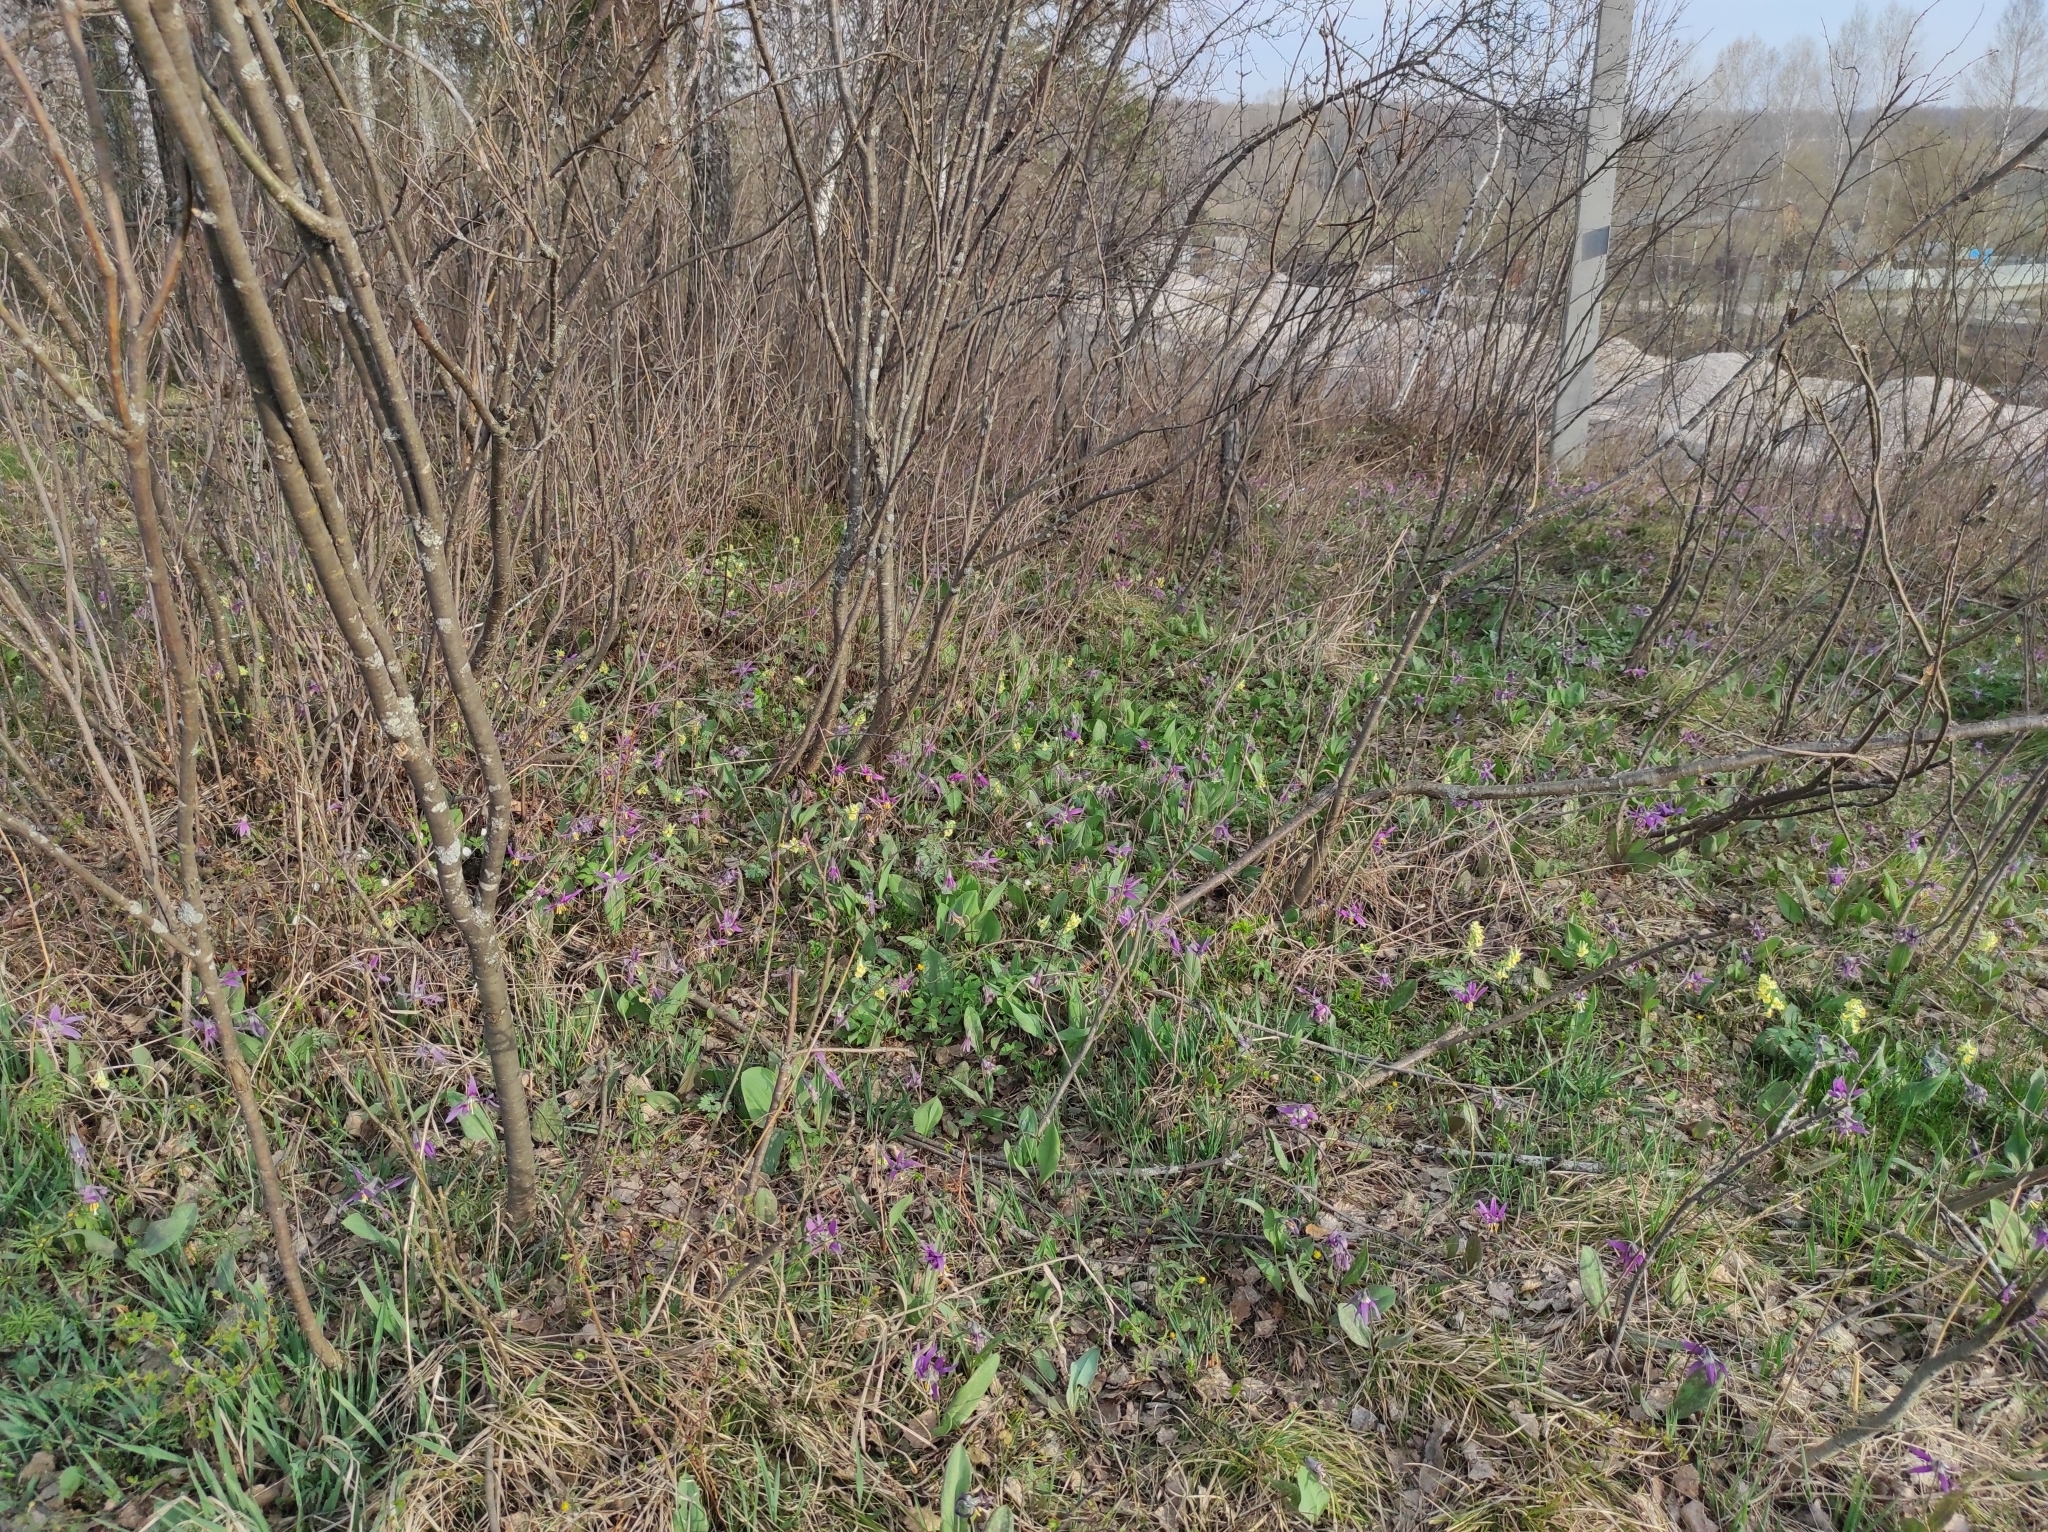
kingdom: Plantae
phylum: Tracheophyta
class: Magnoliopsida
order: Ranunculales
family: Papaveraceae
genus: Corydalis
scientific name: Corydalis bracteata
